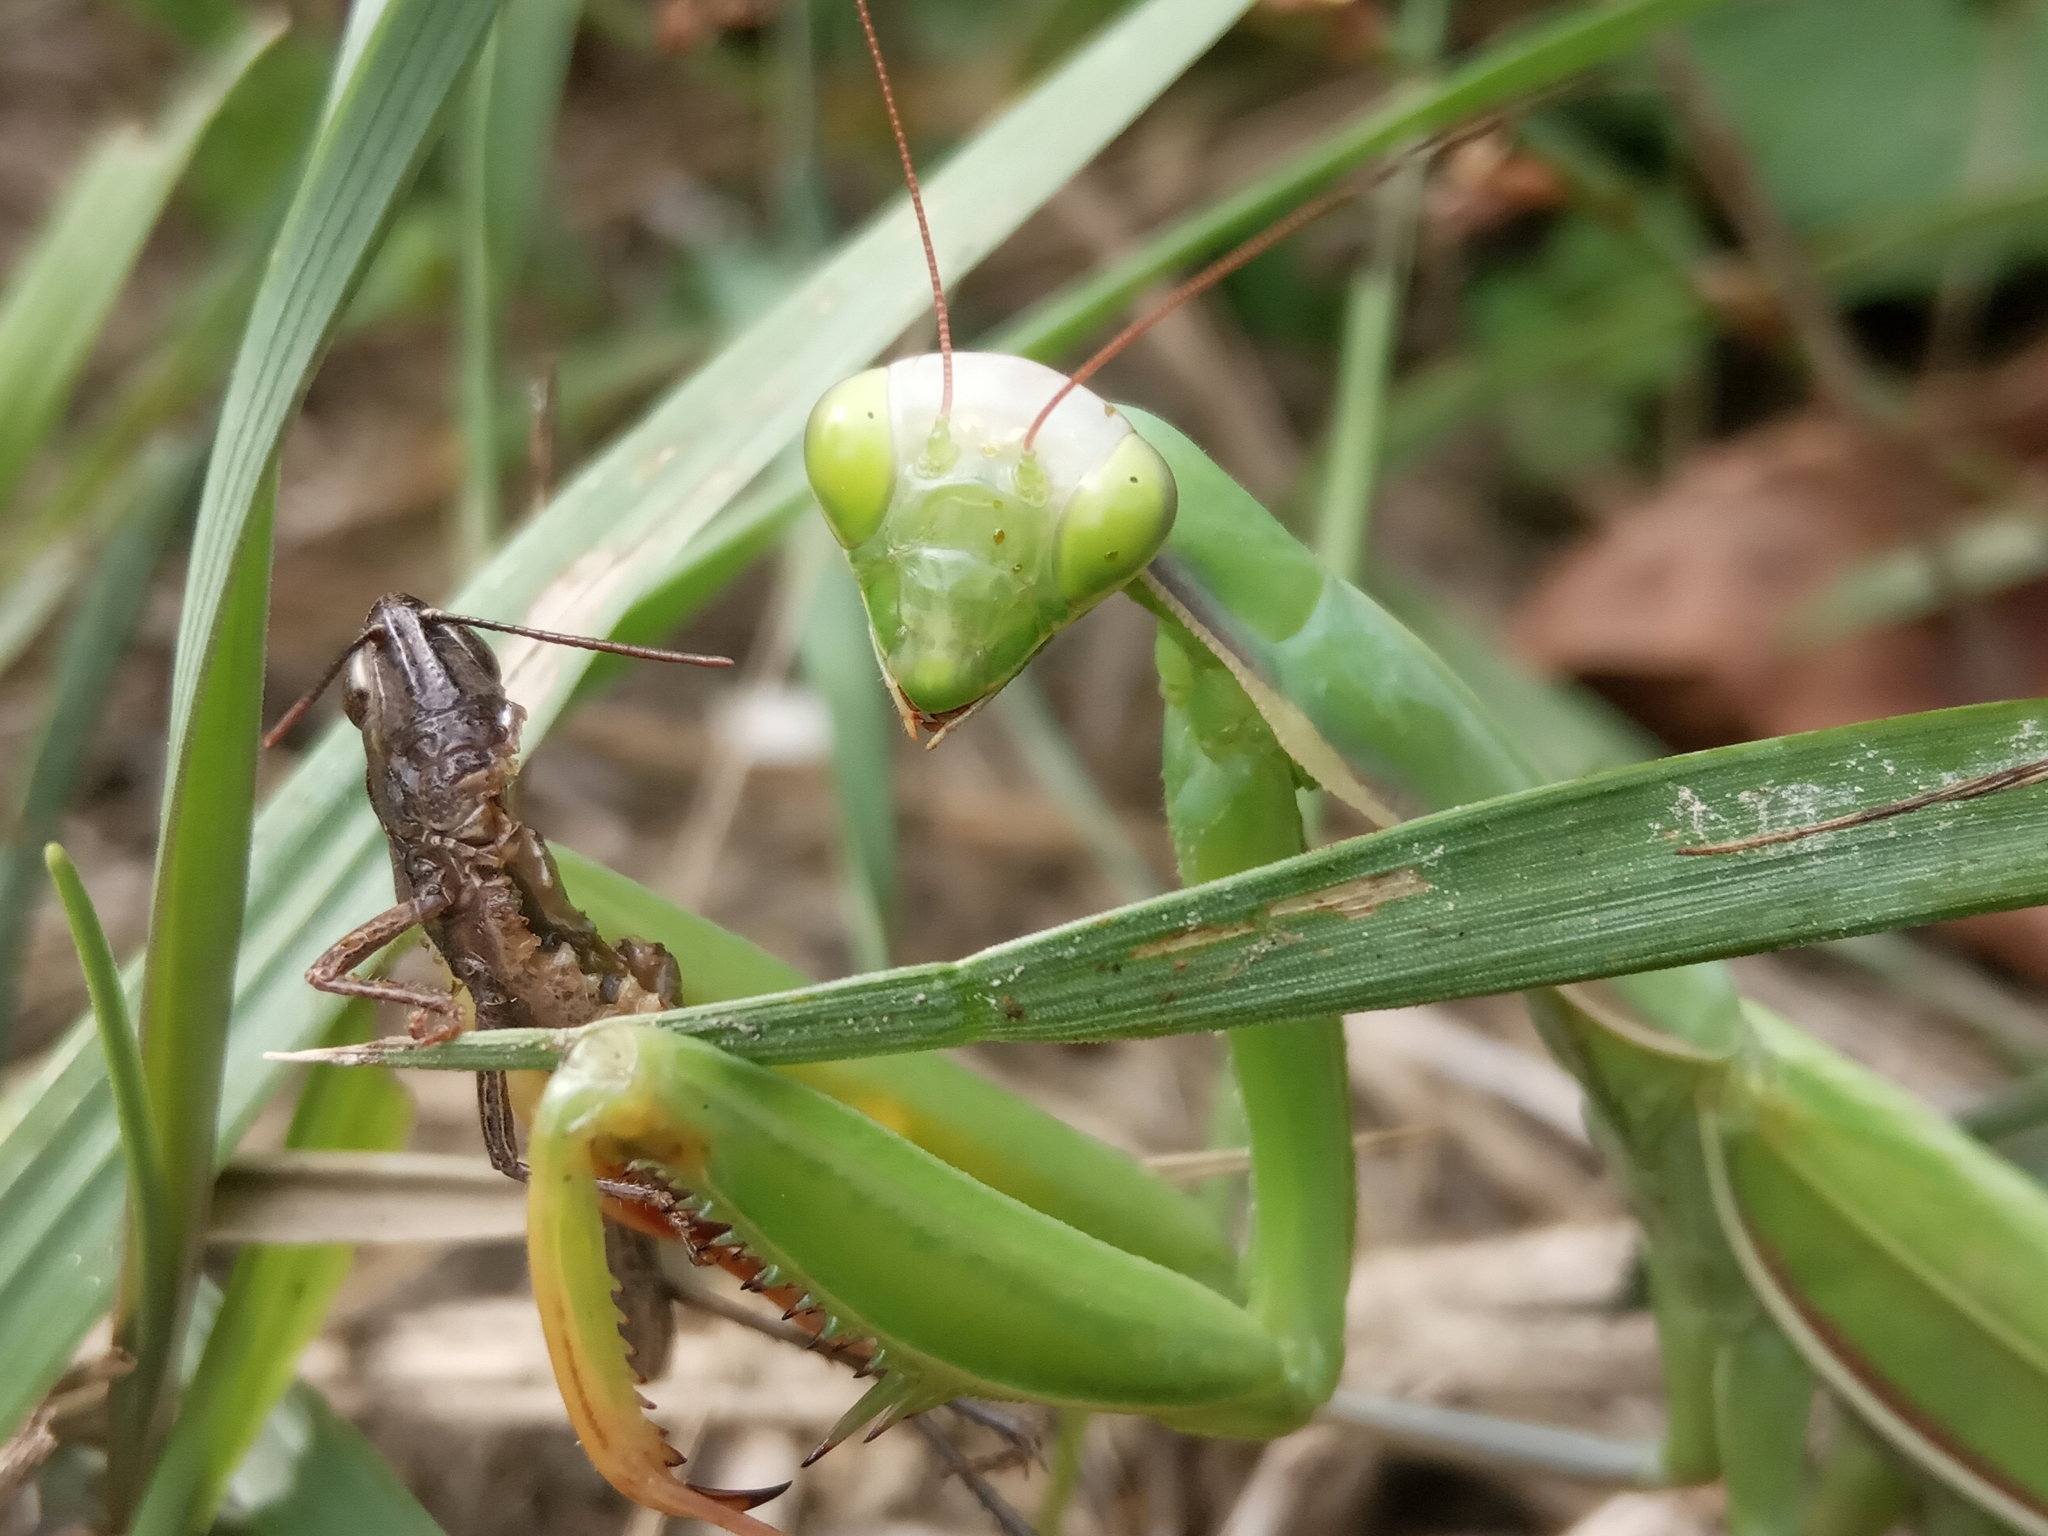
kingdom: Animalia
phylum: Arthropoda
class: Insecta
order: Mantodea
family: Mantidae
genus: Mantis
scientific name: Mantis religiosa
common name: Praying mantis
